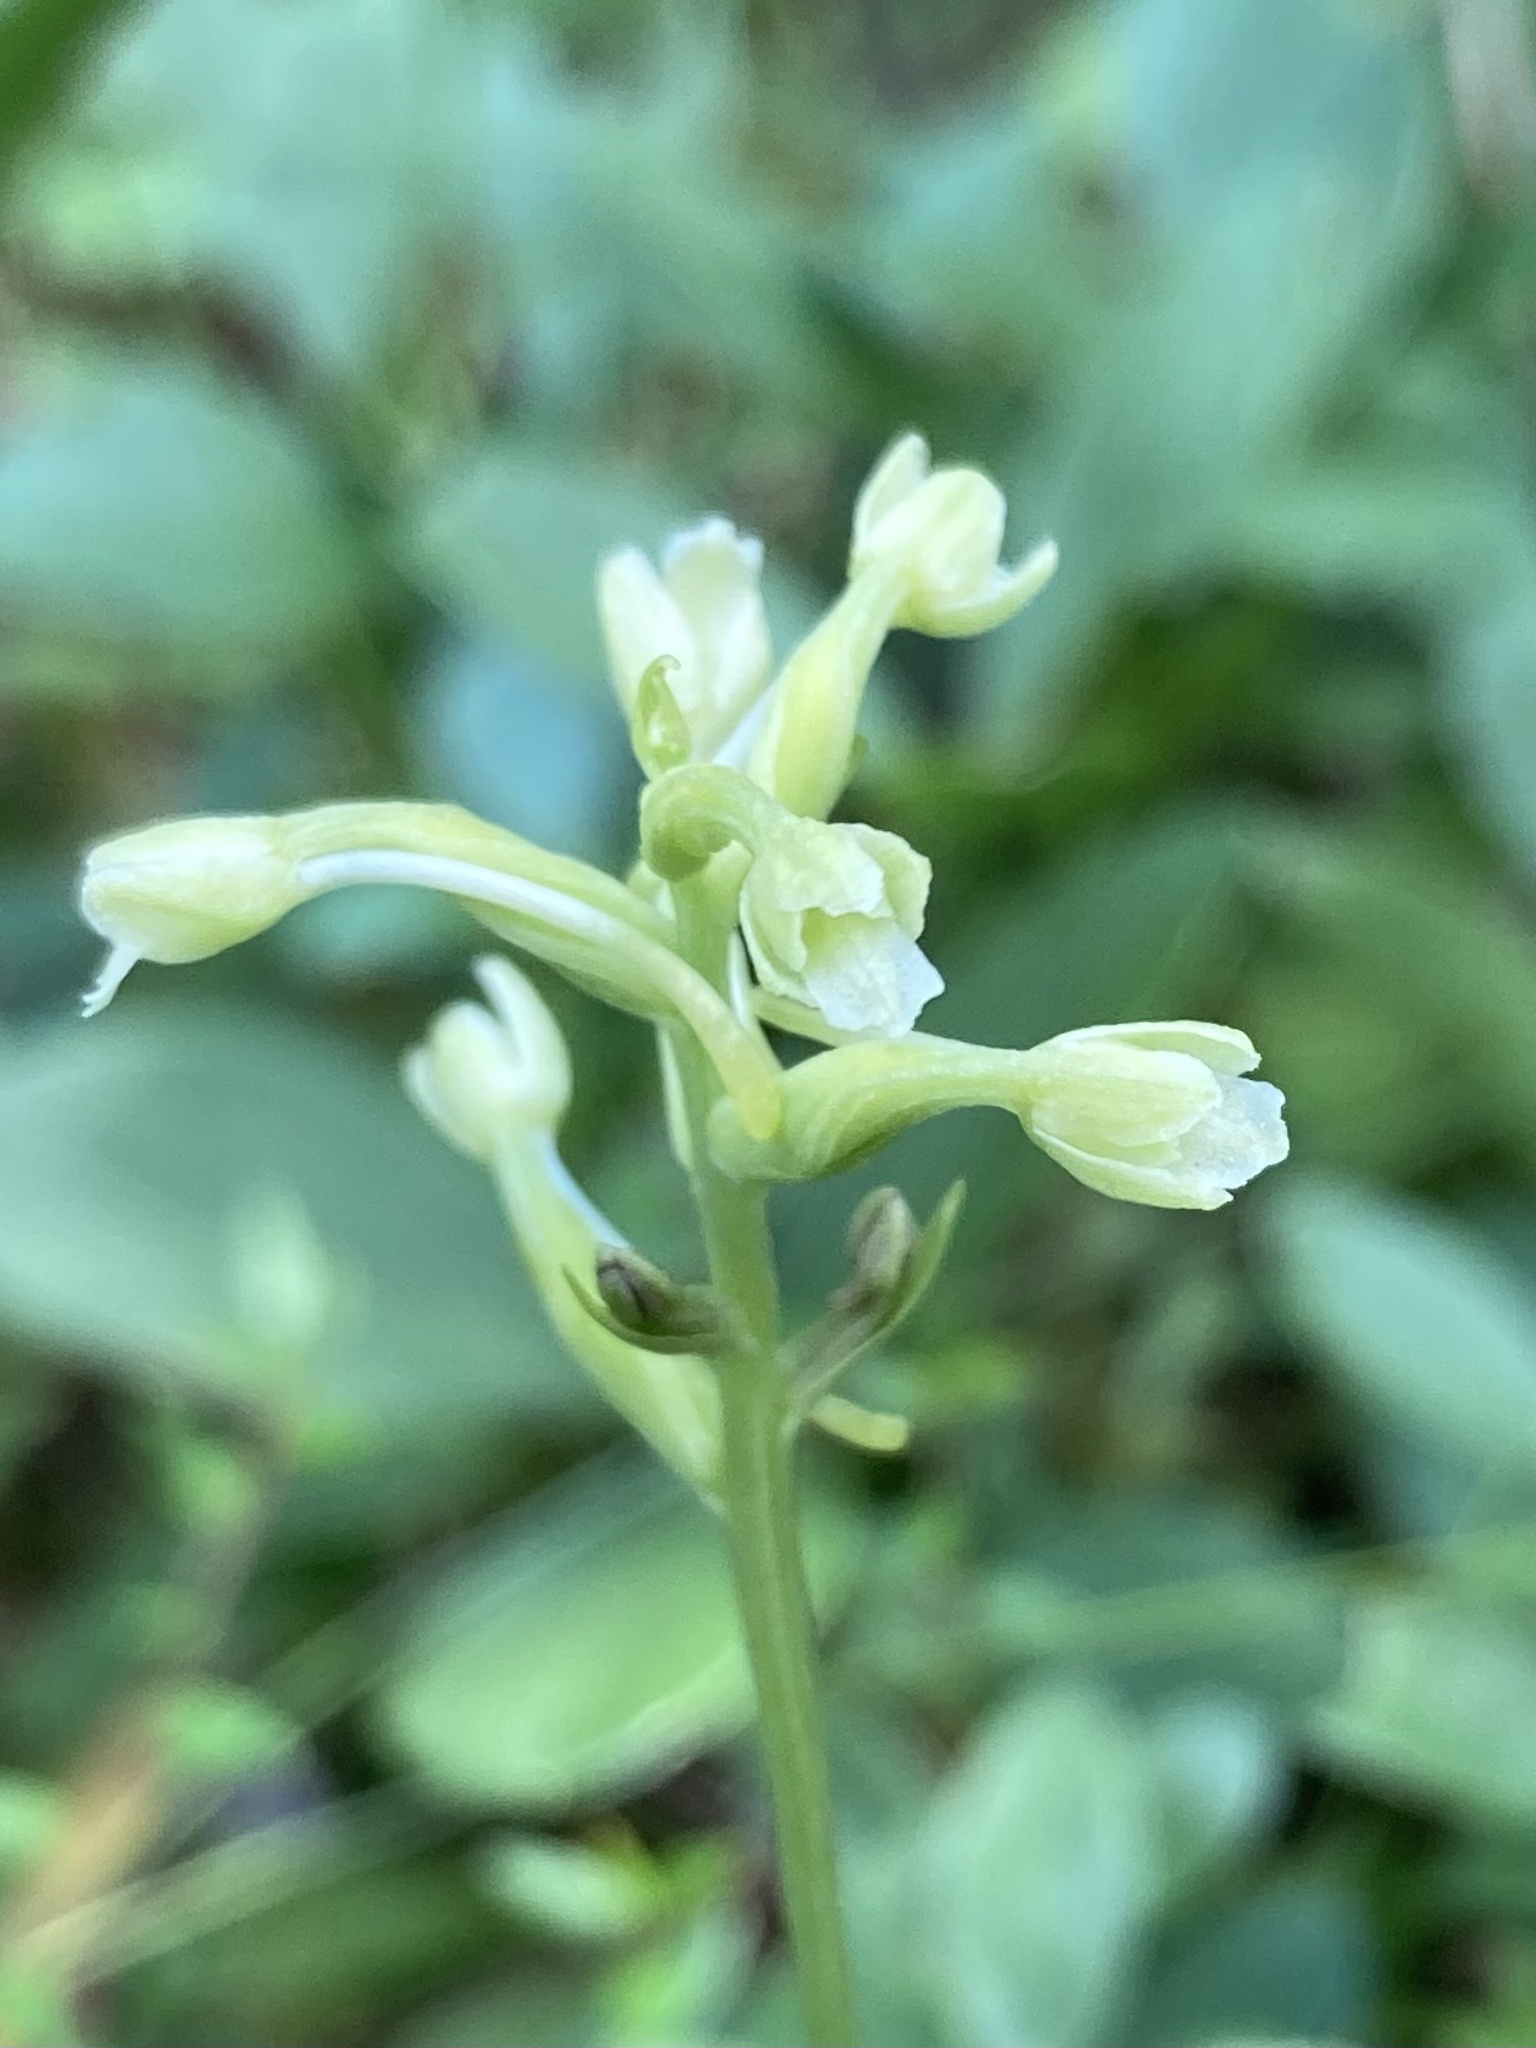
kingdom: Plantae
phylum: Tracheophyta
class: Liliopsida
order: Asparagales
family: Orchidaceae
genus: Platanthera
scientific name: Platanthera clavellata
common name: Club-spur orchid
